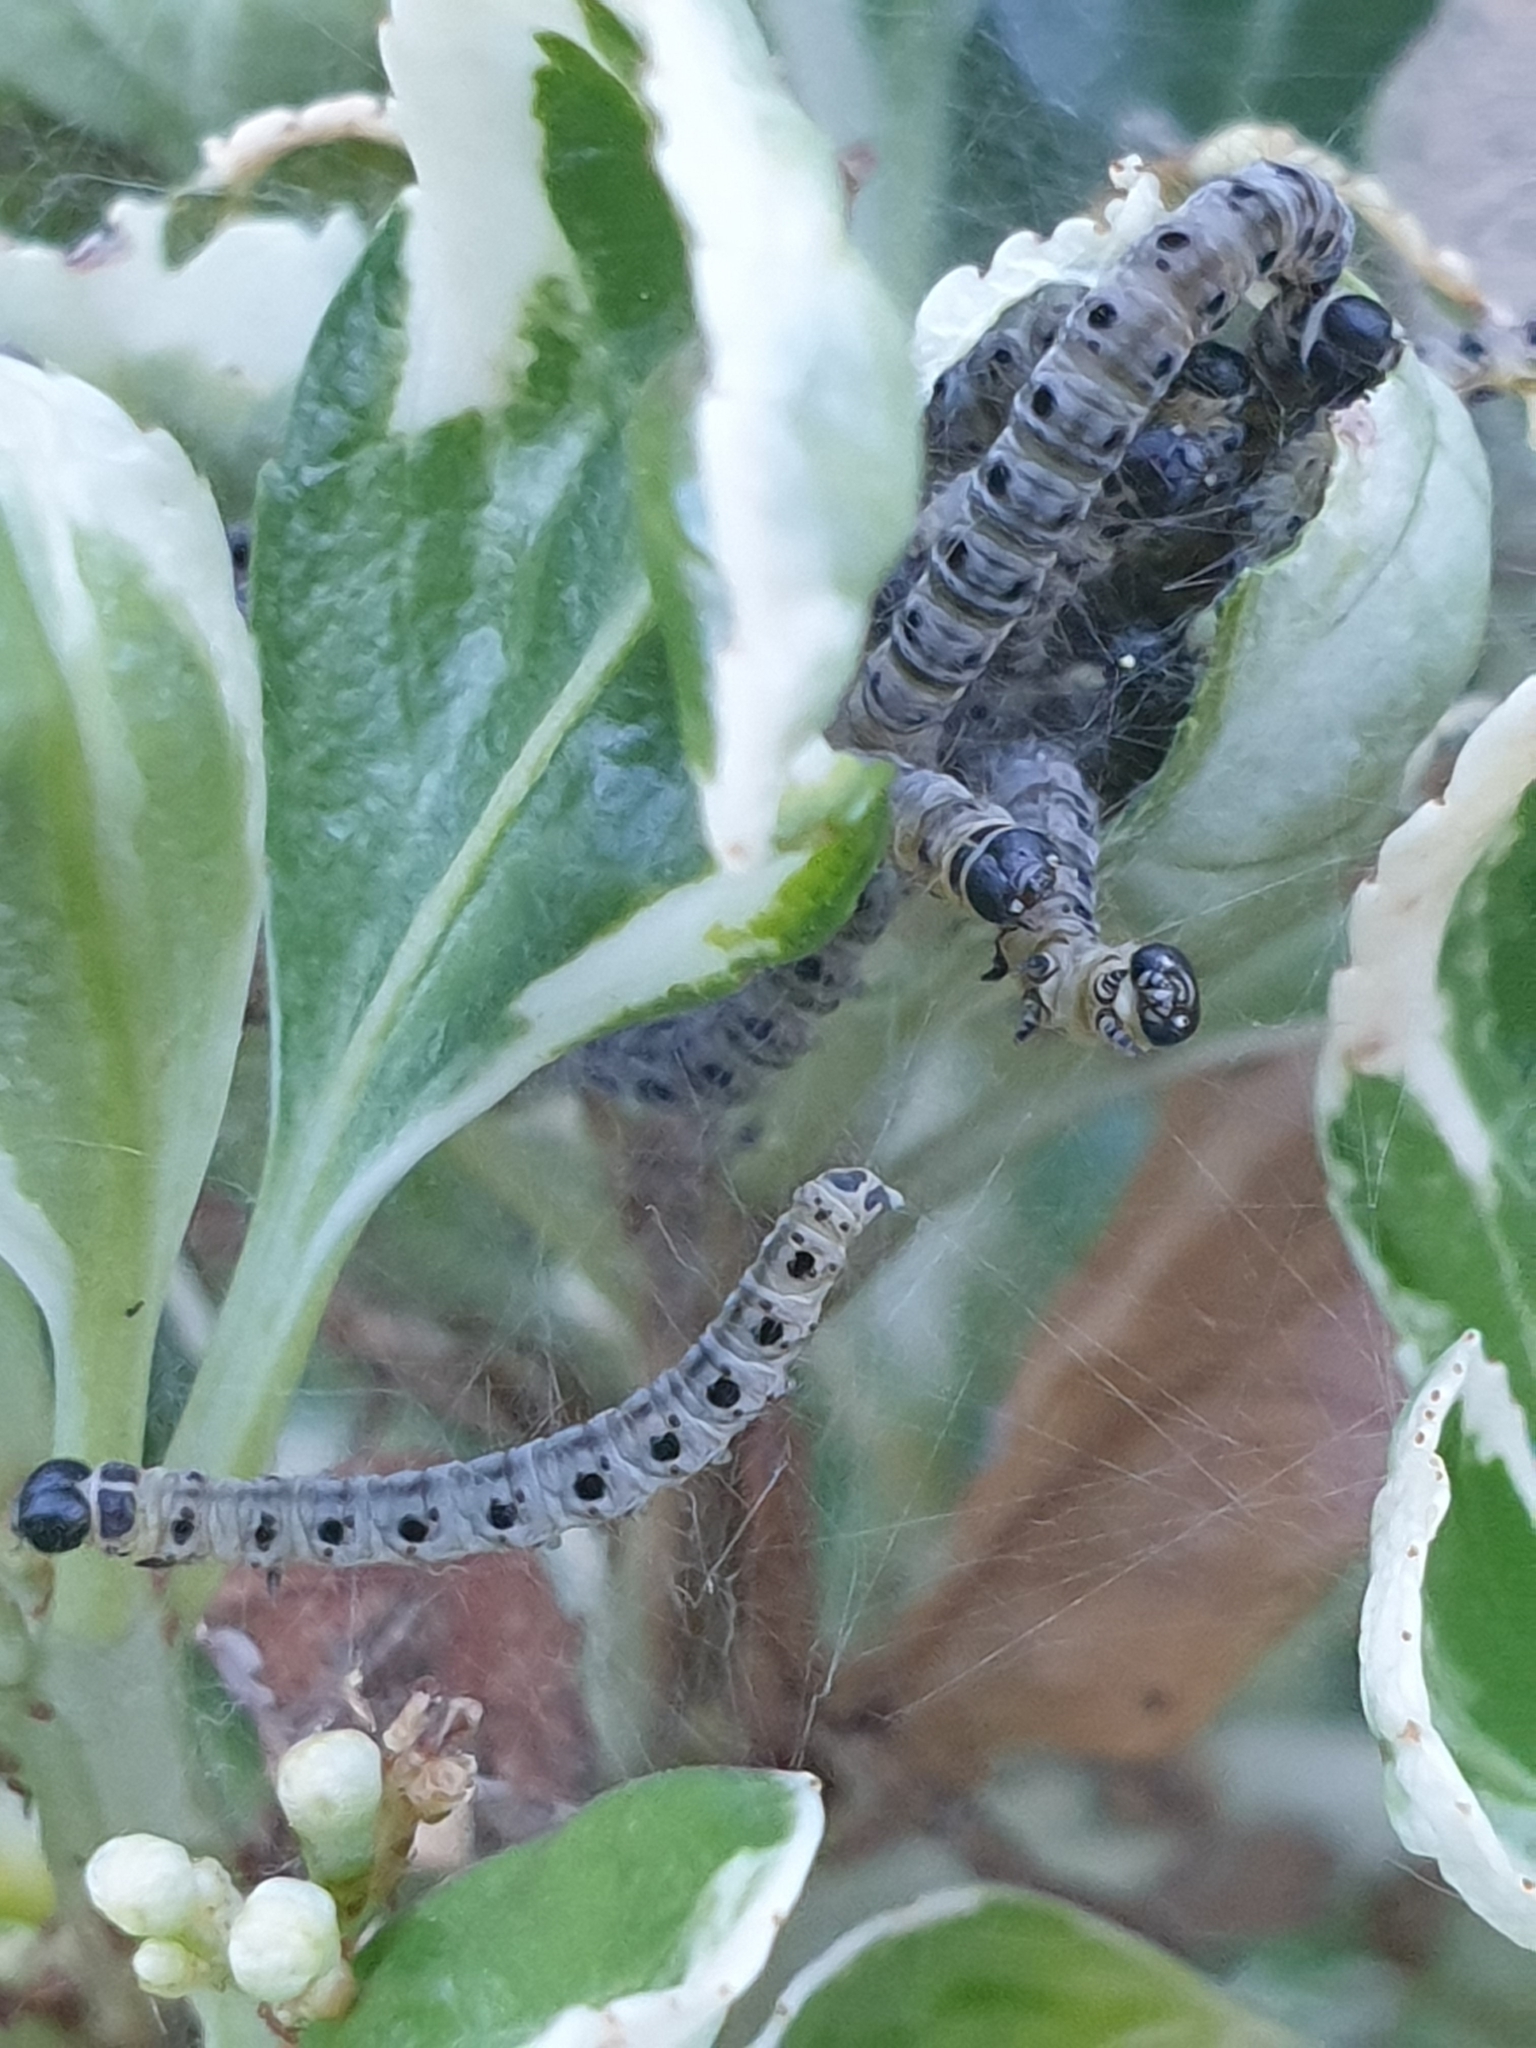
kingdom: Animalia
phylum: Arthropoda
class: Insecta
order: Lepidoptera
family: Yponomeutidae
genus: Yponomeuta
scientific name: Yponomeuta cagnagellus
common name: Spindle ermine
